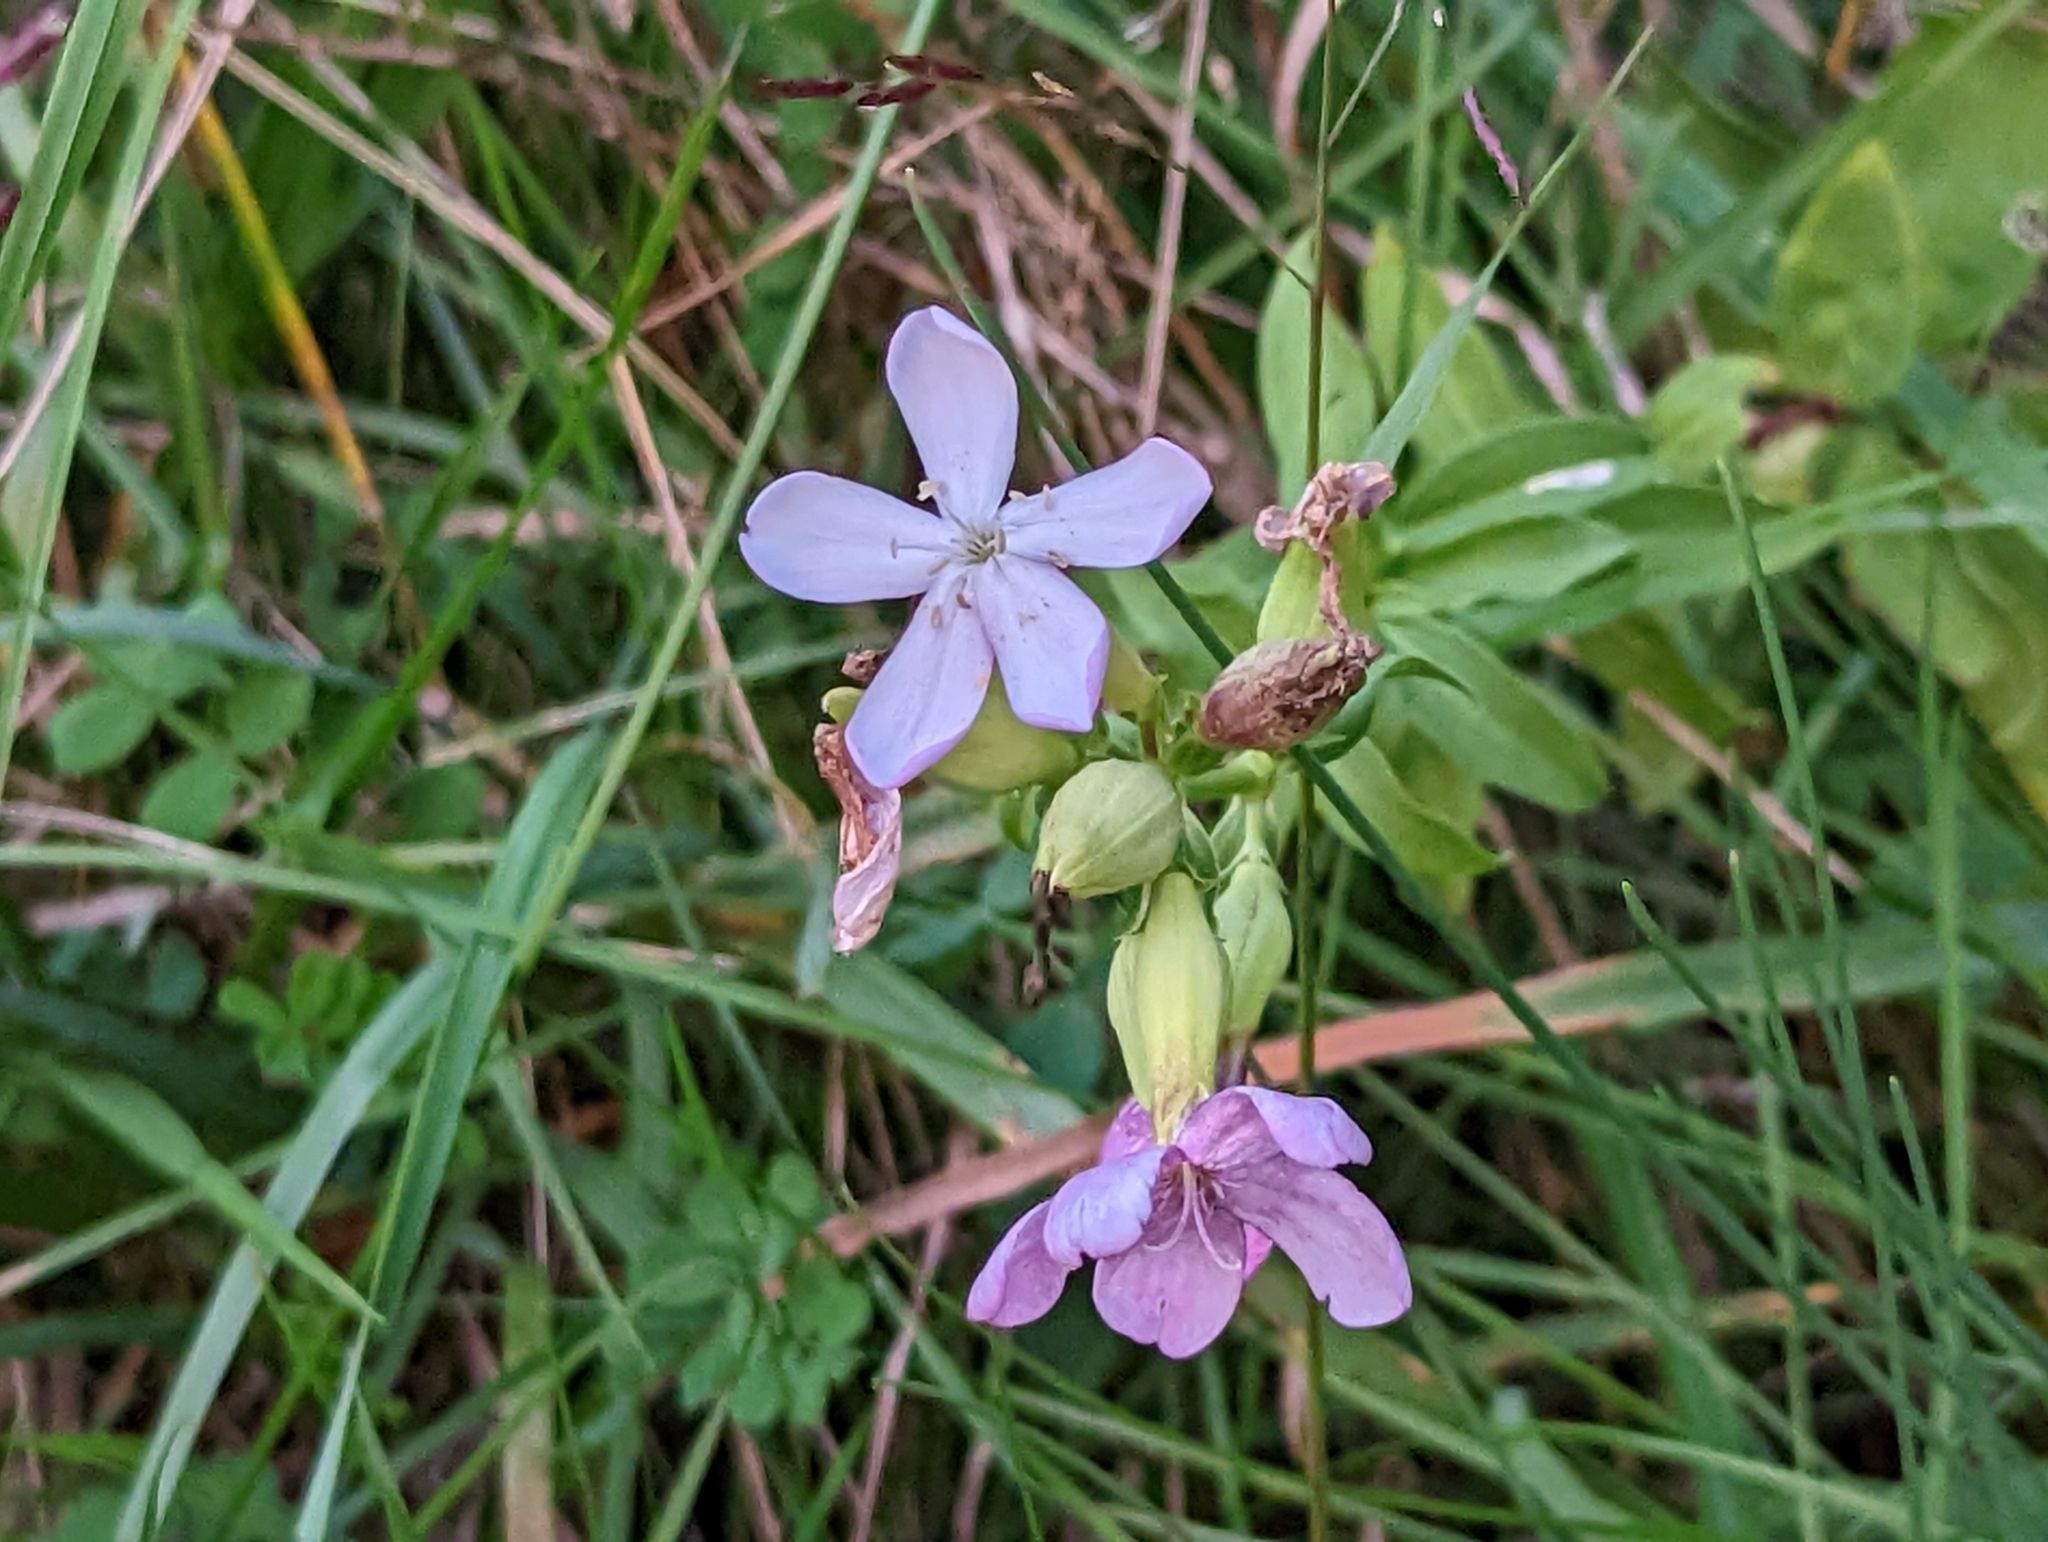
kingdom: Plantae
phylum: Tracheophyta
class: Magnoliopsida
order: Caryophyllales
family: Caryophyllaceae
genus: Saponaria
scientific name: Saponaria officinalis
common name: Soapwort
